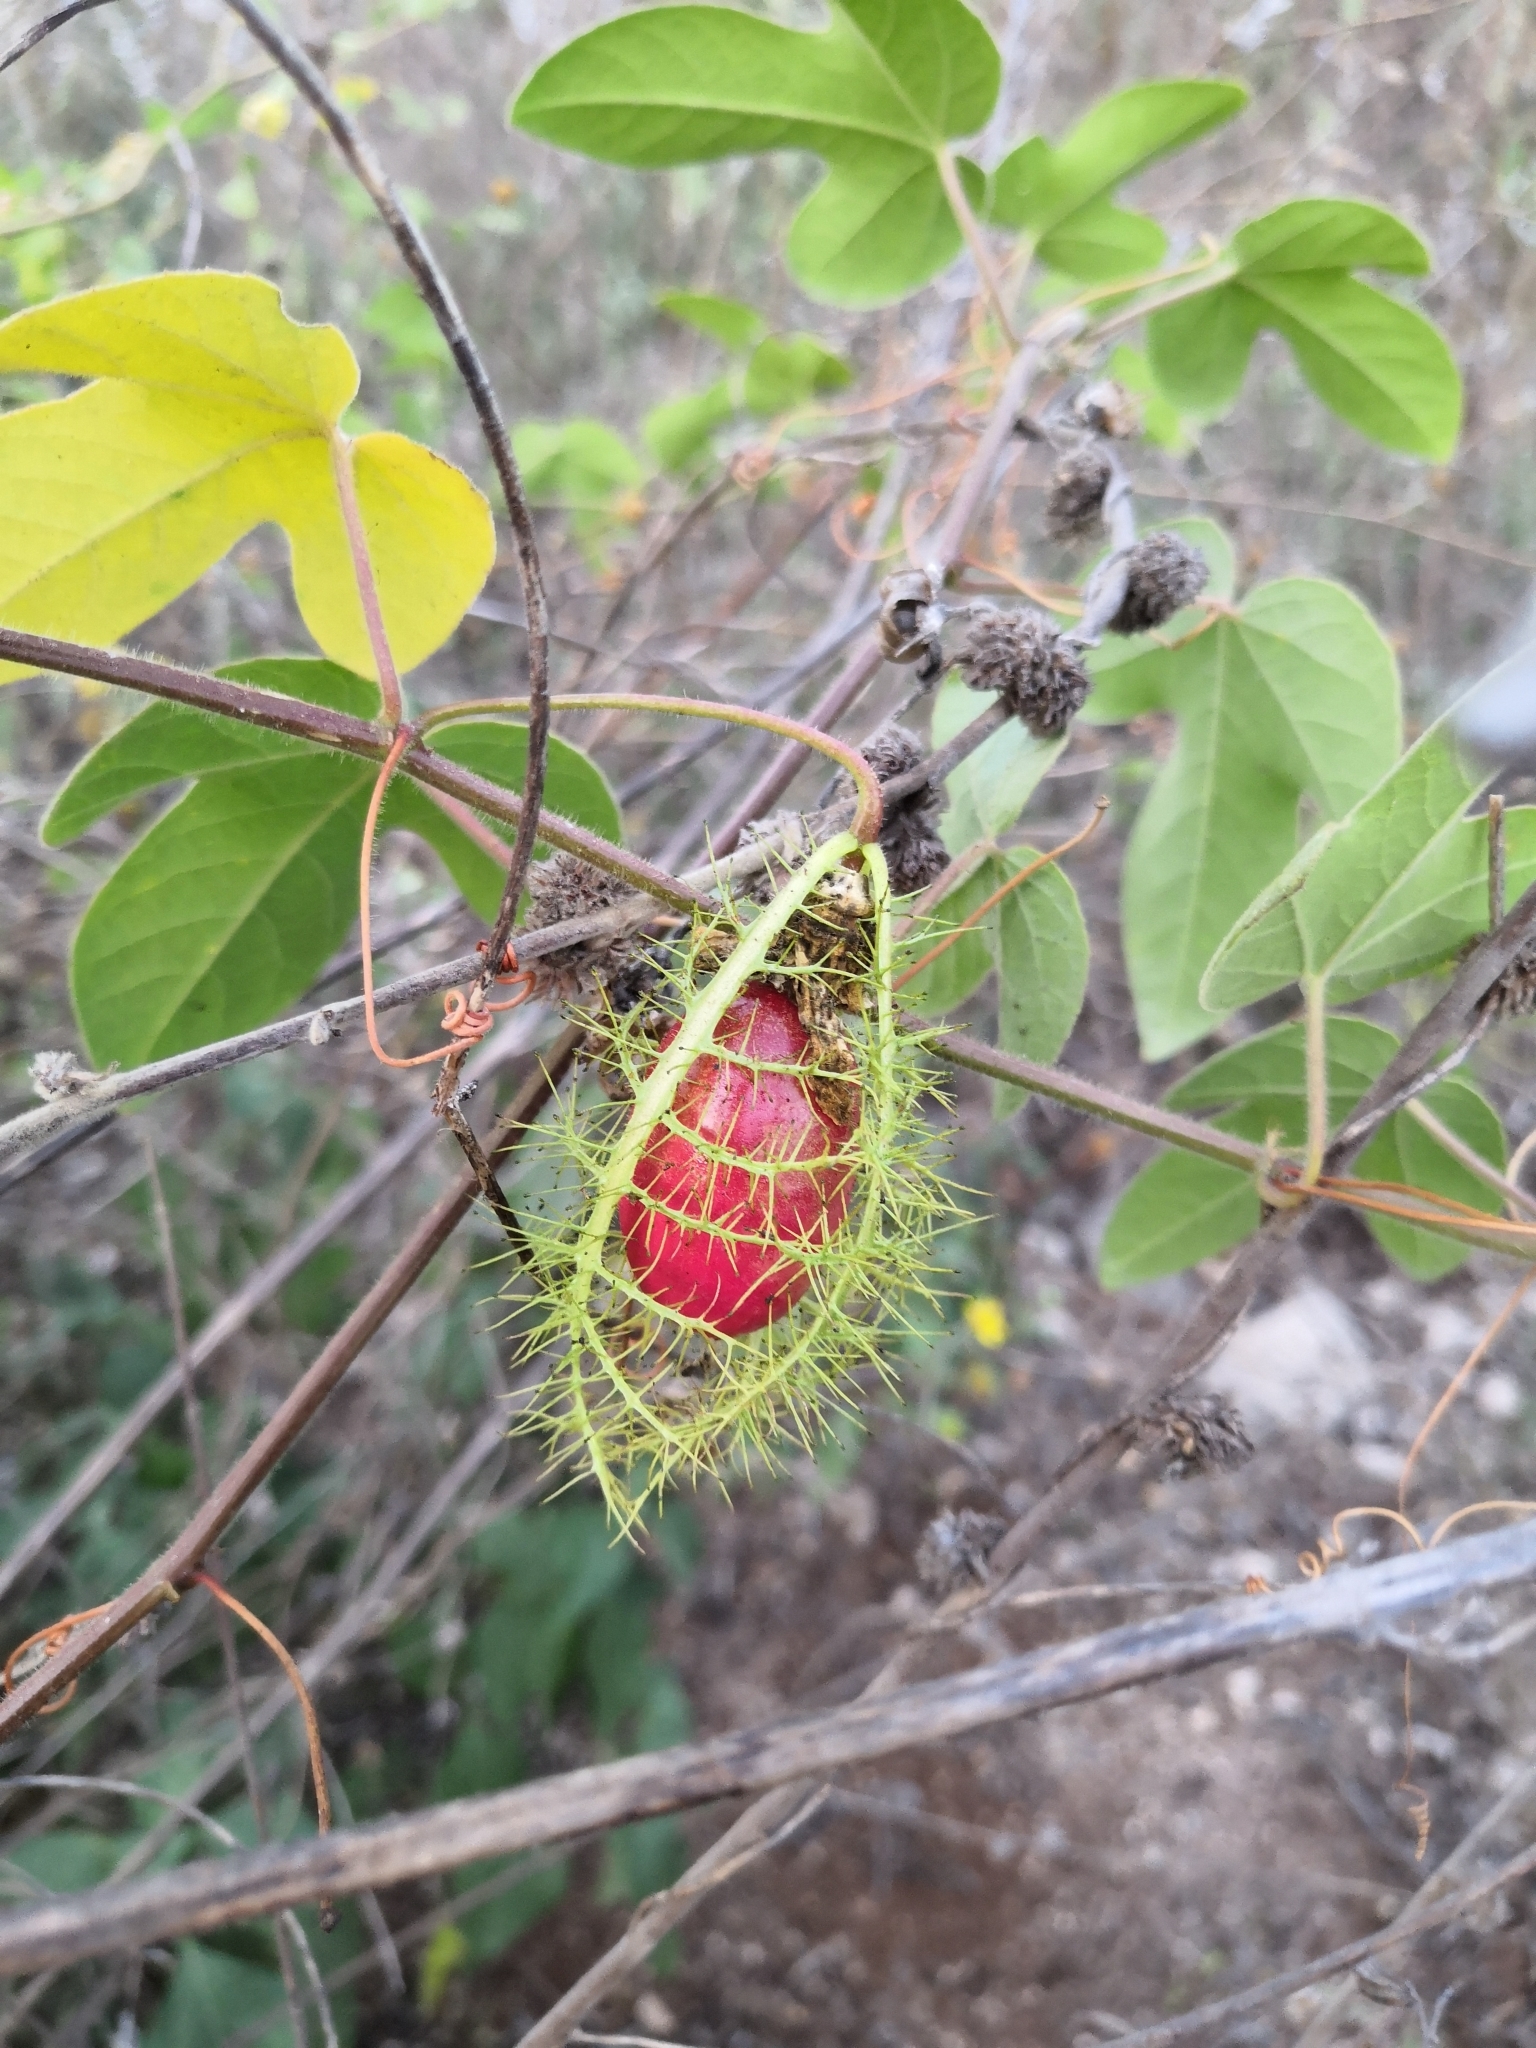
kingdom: Plantae
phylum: Tracheophyta
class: Magnoliopsida
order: Malpighiales
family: Passifloraceae
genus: Passiflora
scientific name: Passiflora ciliata
